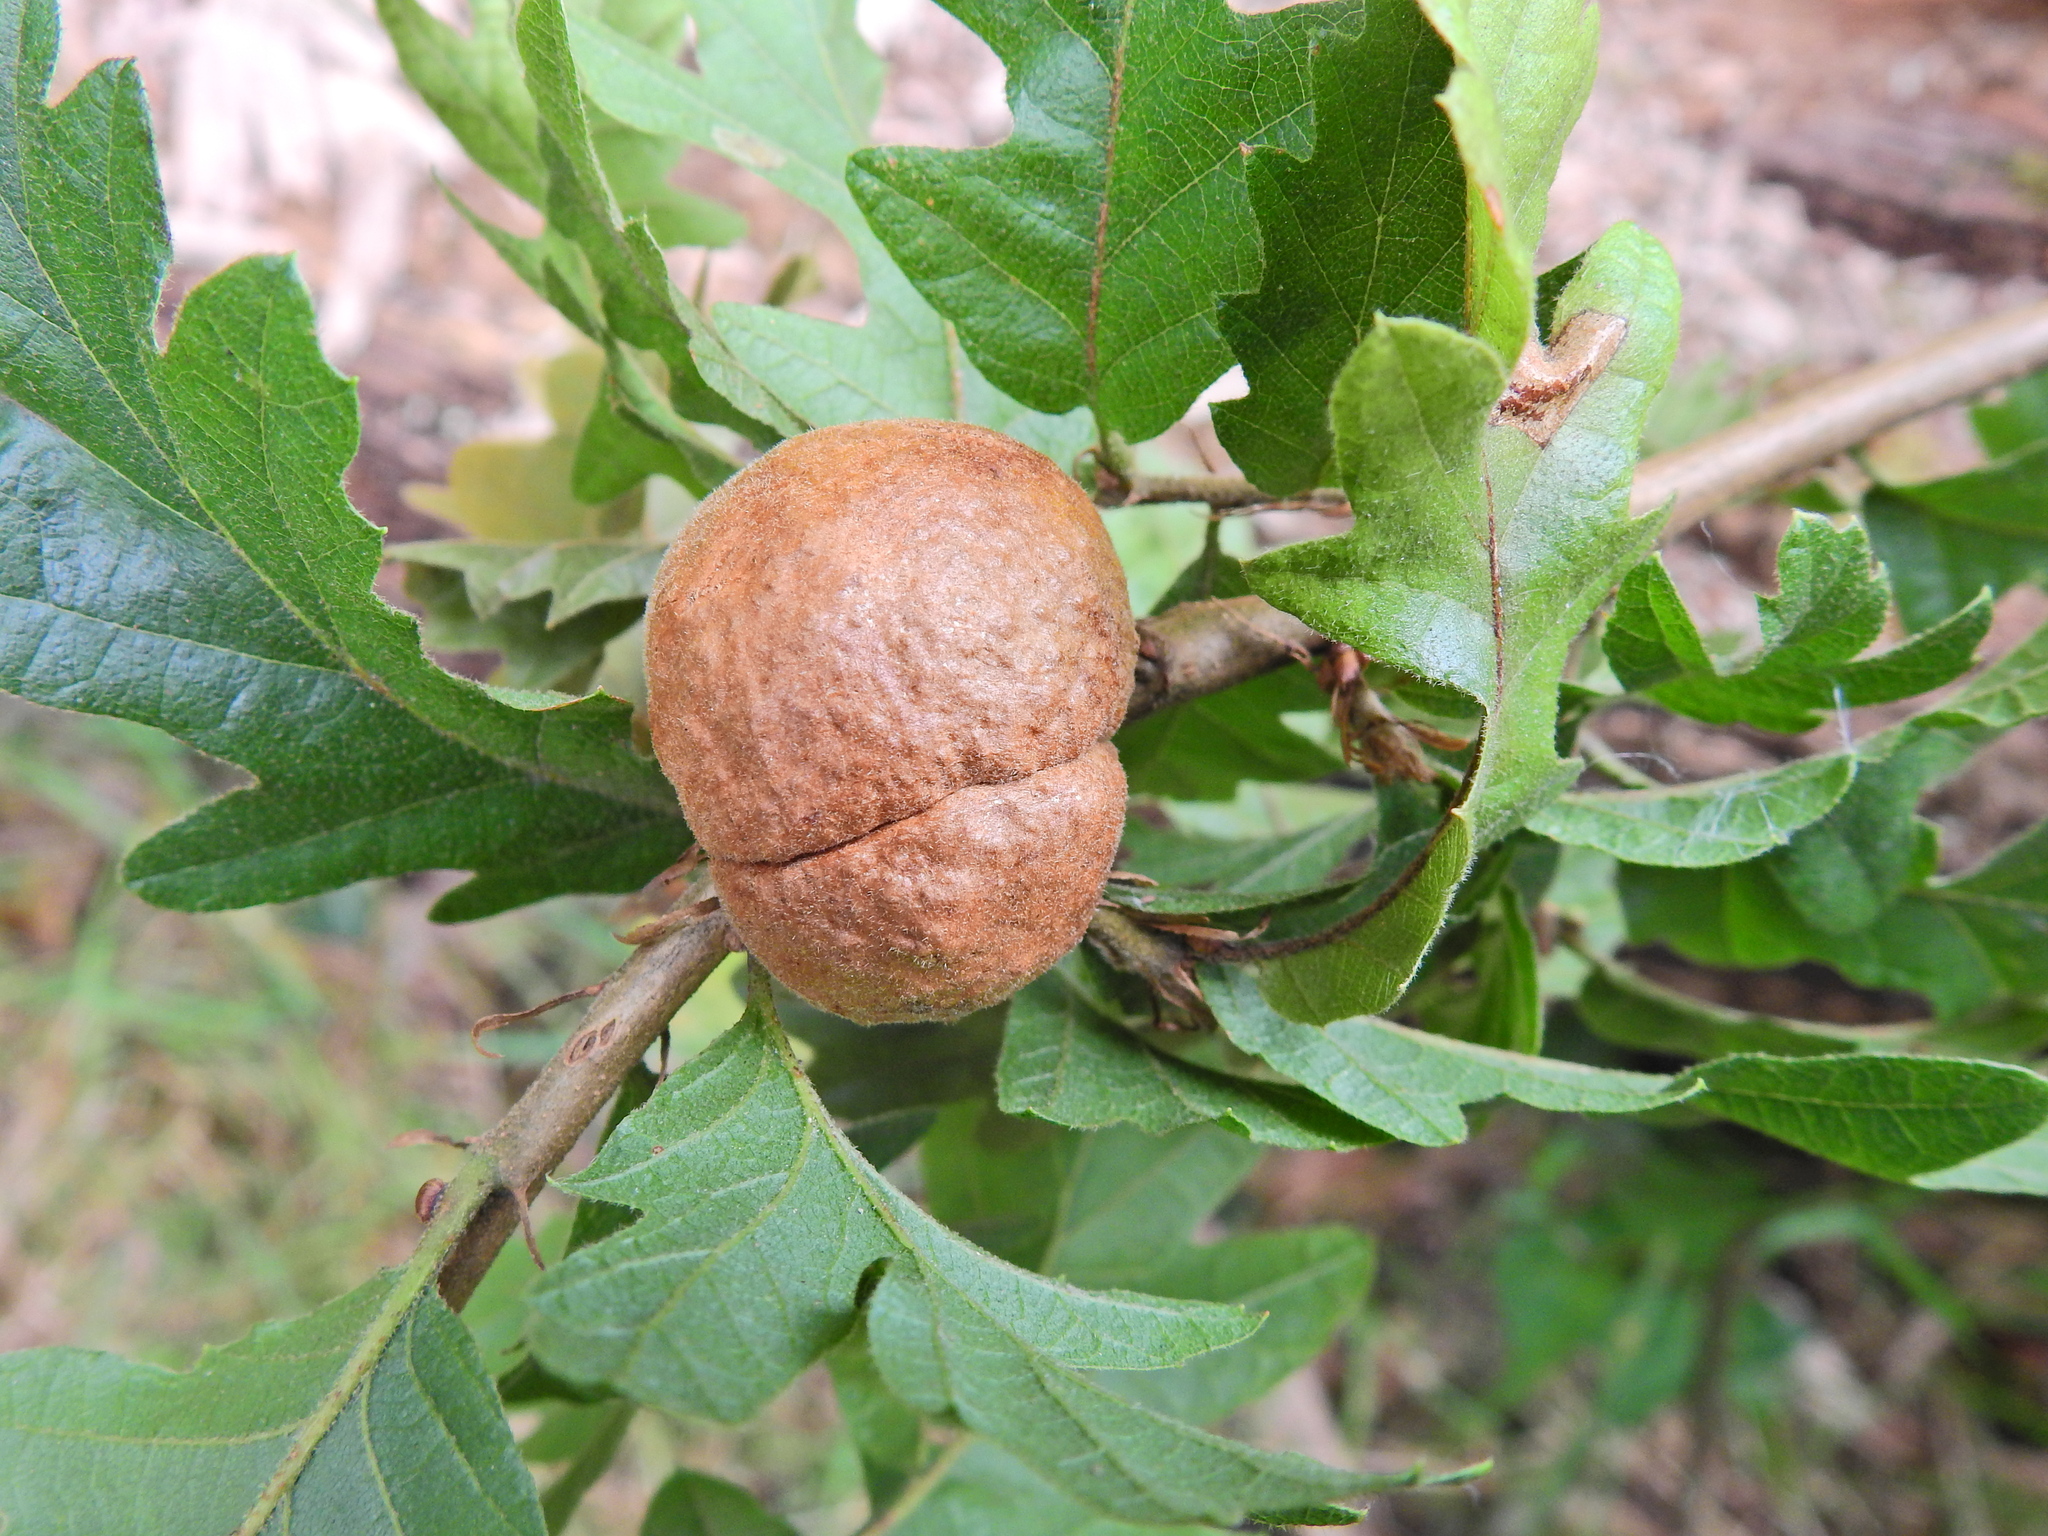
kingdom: Animalia
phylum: Arthropoda
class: Insecta
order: Hymenoptera
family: Cynipidae
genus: Aphelonyx
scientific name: Aphelonyx cerricola
